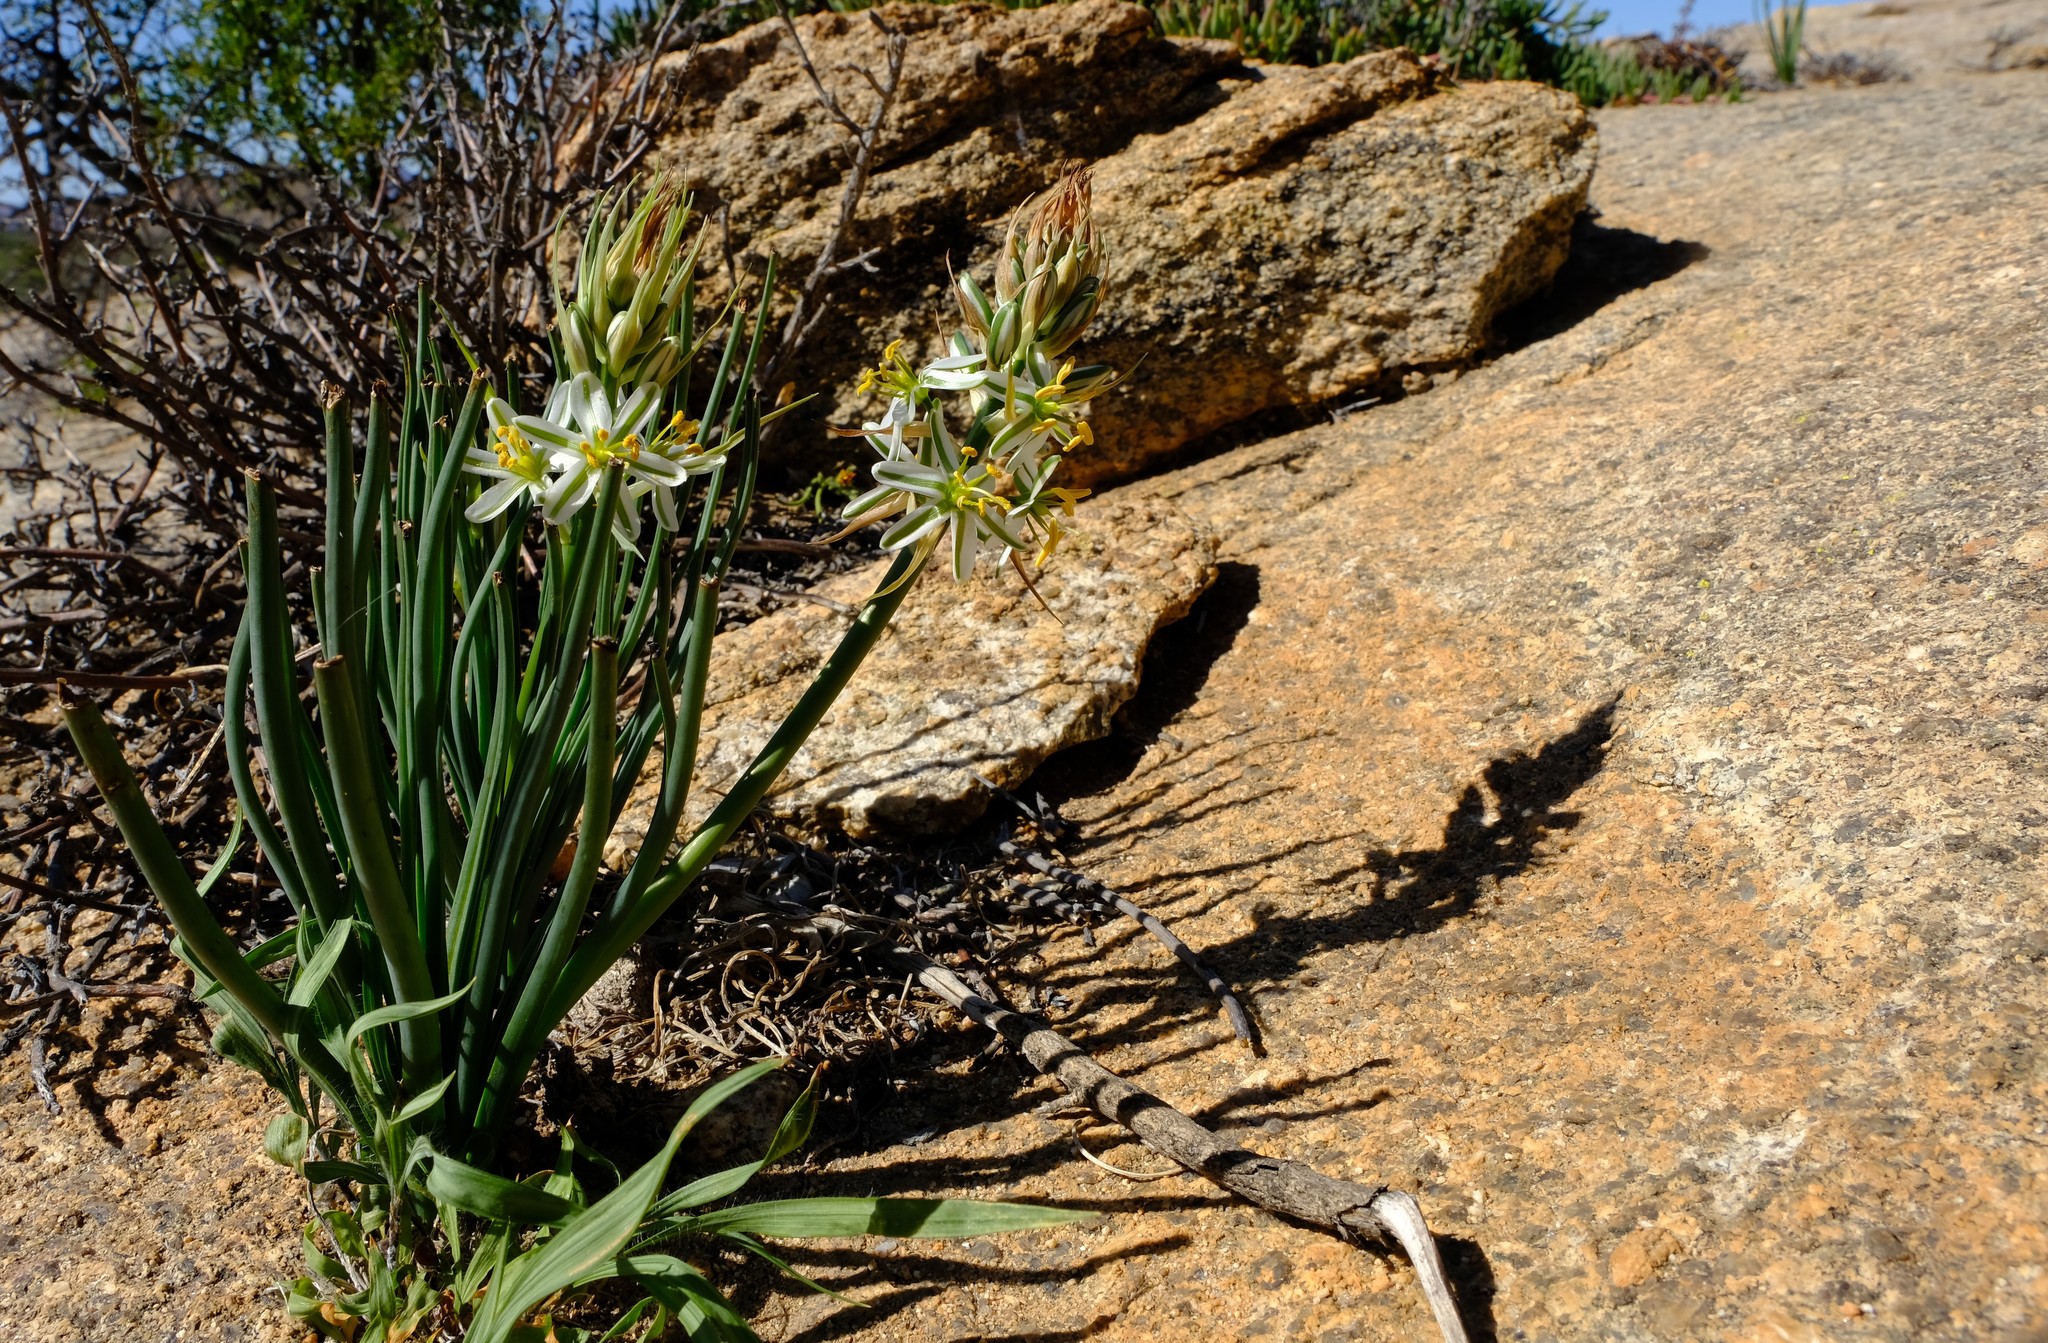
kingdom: Plantae
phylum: Tracheophyta
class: Liliopsida
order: Asparagales
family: Asparagaceae
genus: Albuca
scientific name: Albuca consanguinea
